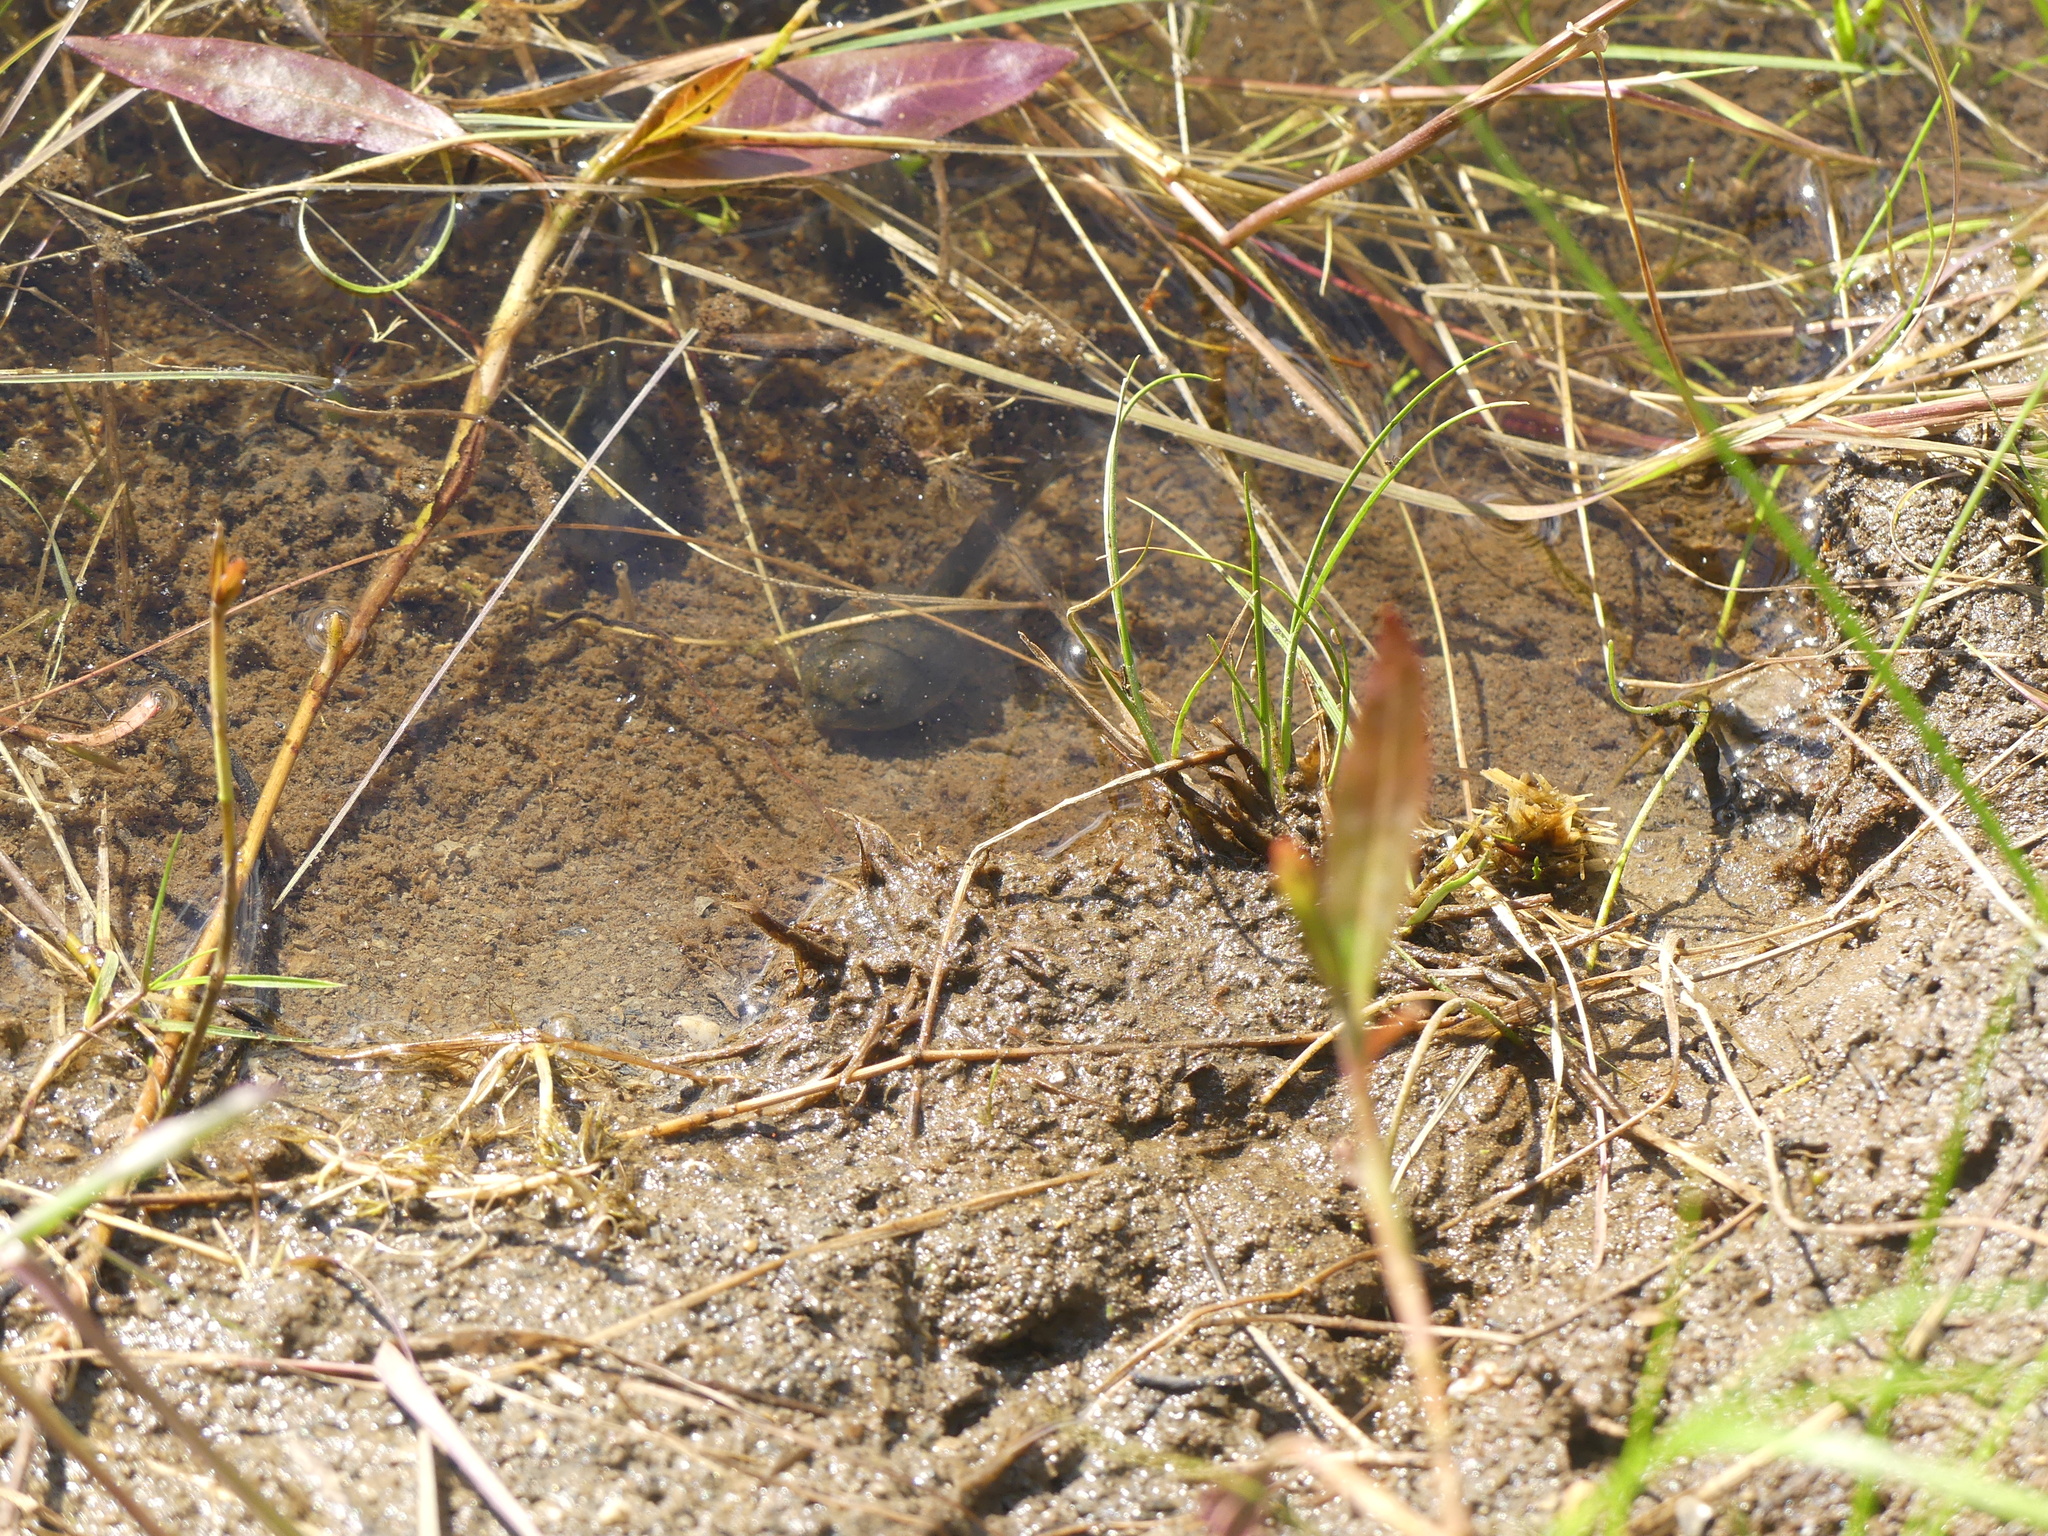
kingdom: Animalia
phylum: Chordata
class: Amphibia
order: Anura
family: Bufonidae
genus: Anaxyrus
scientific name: Anaxyrus boreas
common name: Western toad
